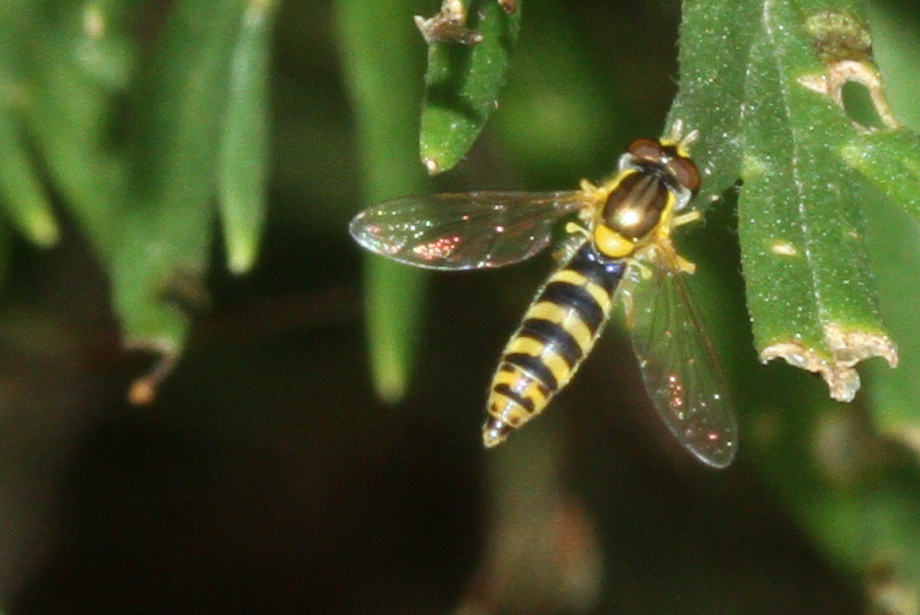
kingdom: Animalia
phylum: Arthropoda
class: Insecta
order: Diptera
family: Syrphidae
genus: Sphaerophoria
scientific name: Sphaerophoria
